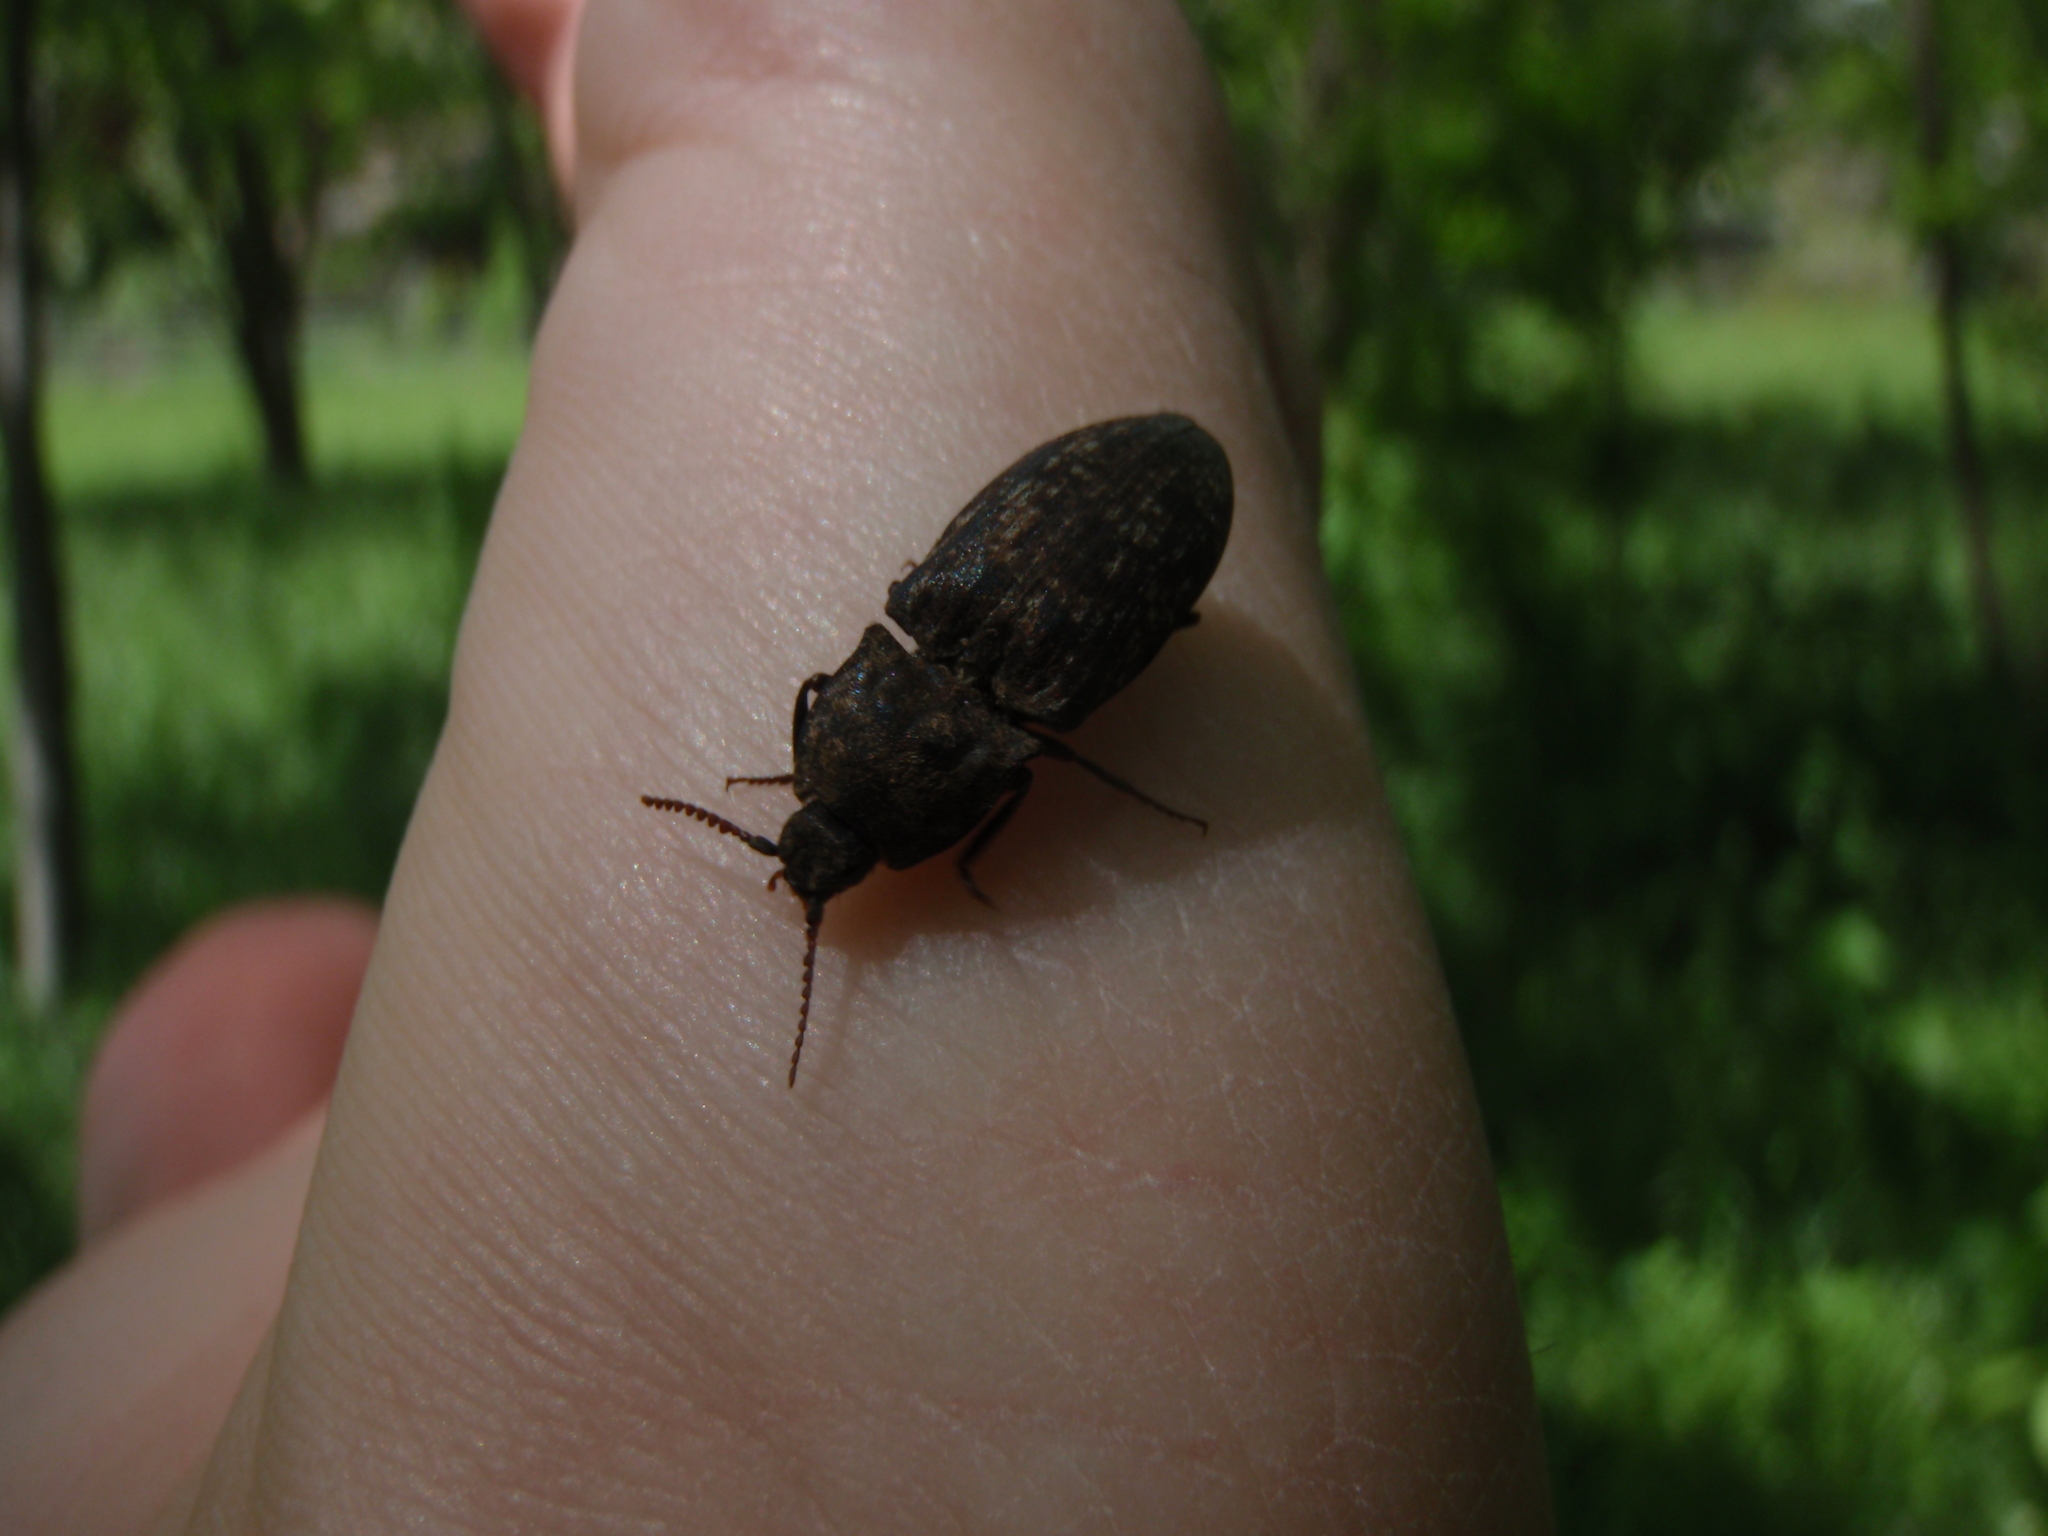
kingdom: Animalia
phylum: Arthropoda
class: Insecta
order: Coleoptera
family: Elateridae
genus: Agrypnus
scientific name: Agrypnus murinus
